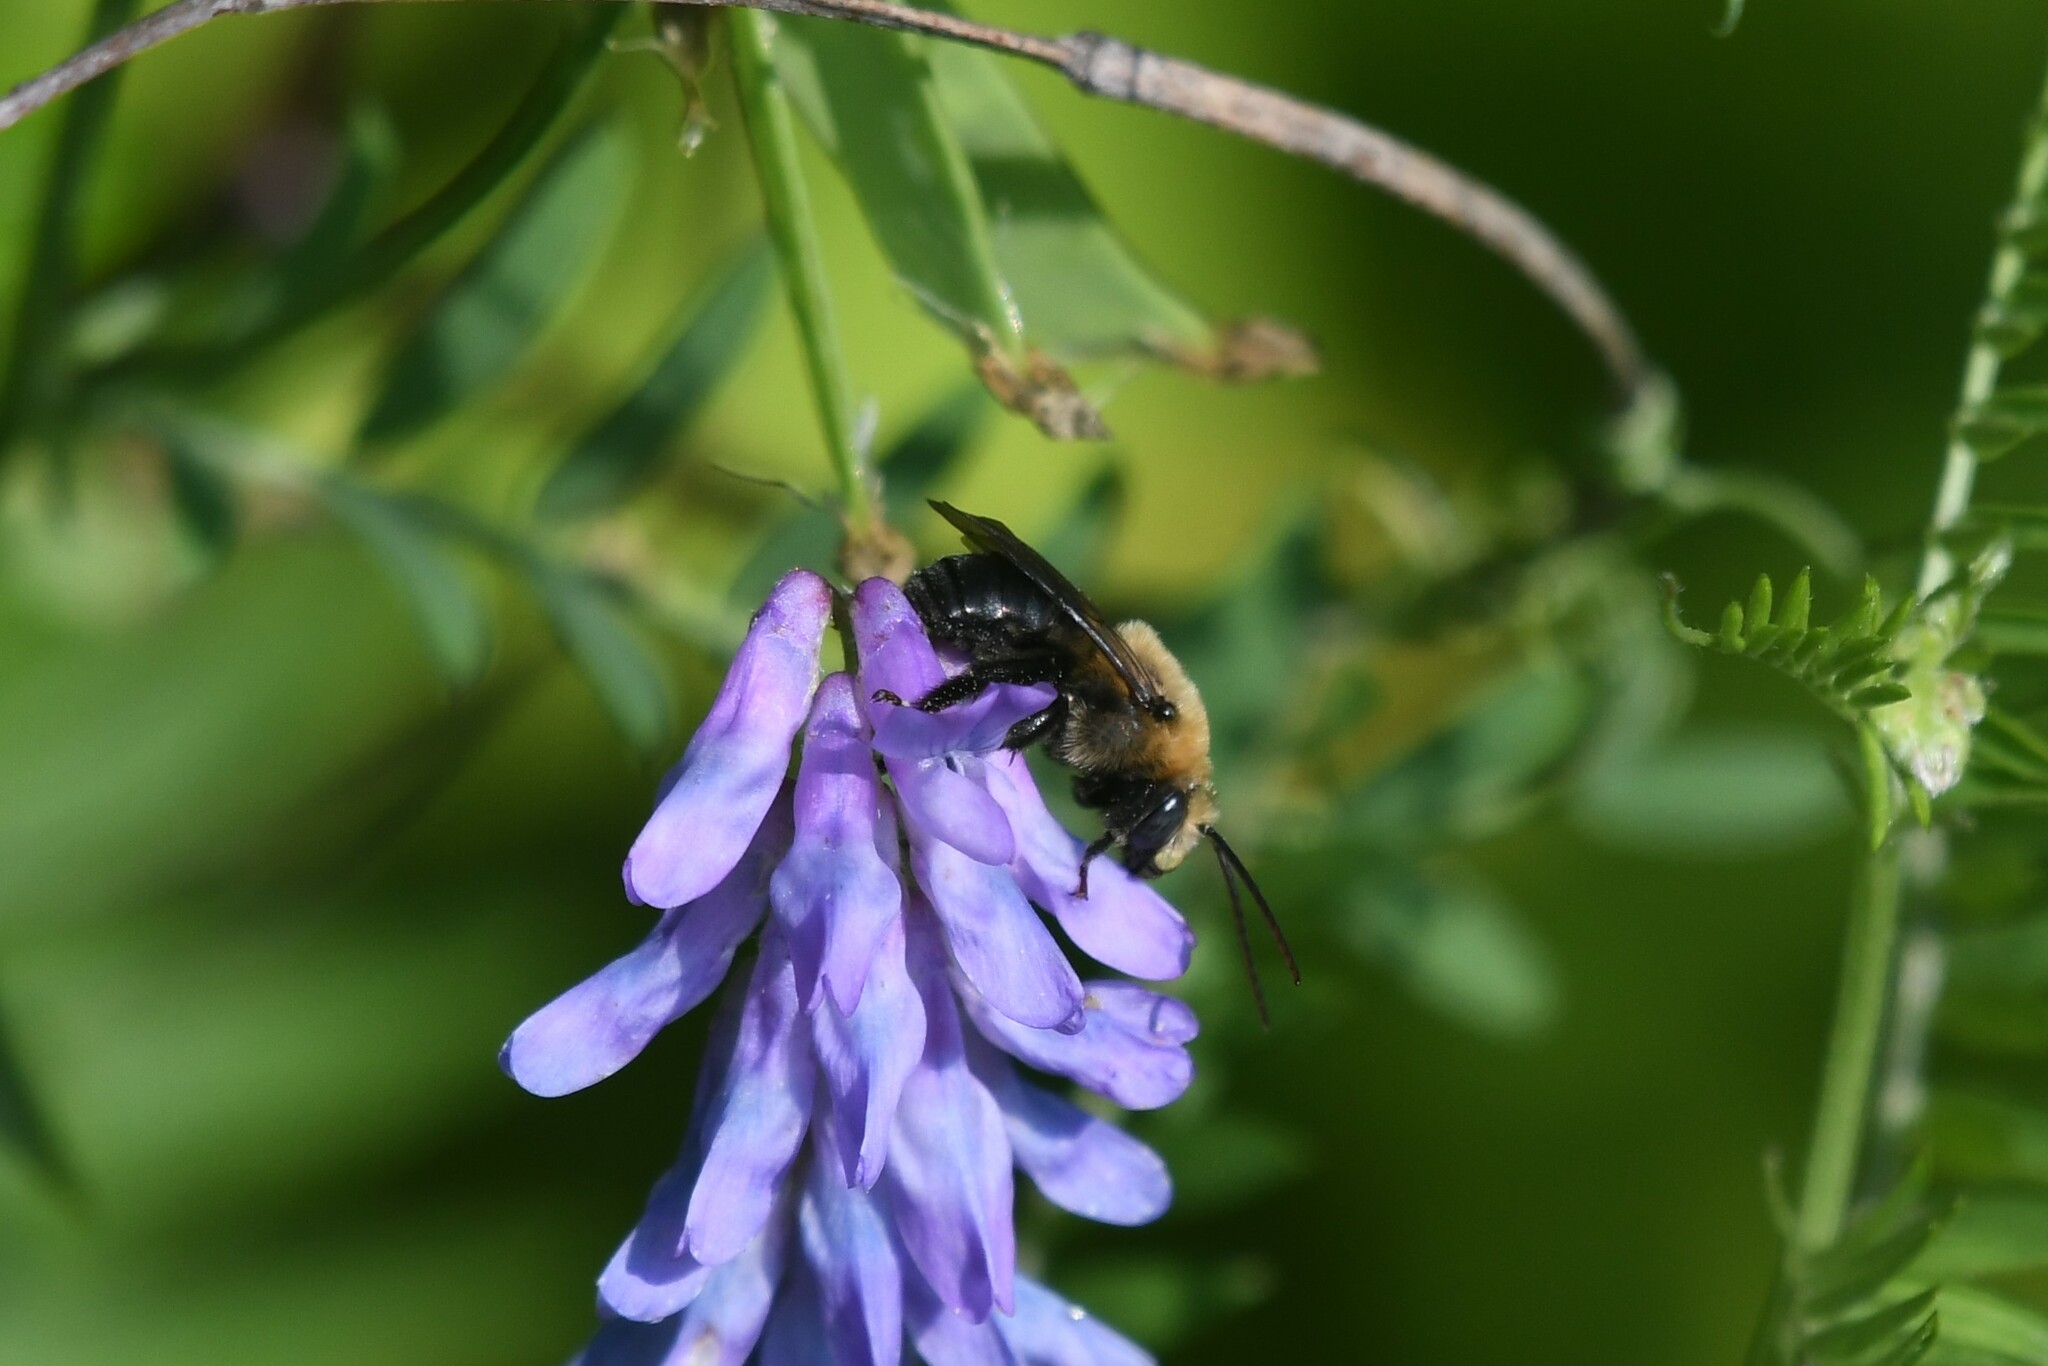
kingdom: Animalia
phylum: Arthropoda
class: Insecta
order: Hymenoptera
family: Apidae
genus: Melissodes
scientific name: Melissodes desponsus
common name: Thistle long-horned bee
